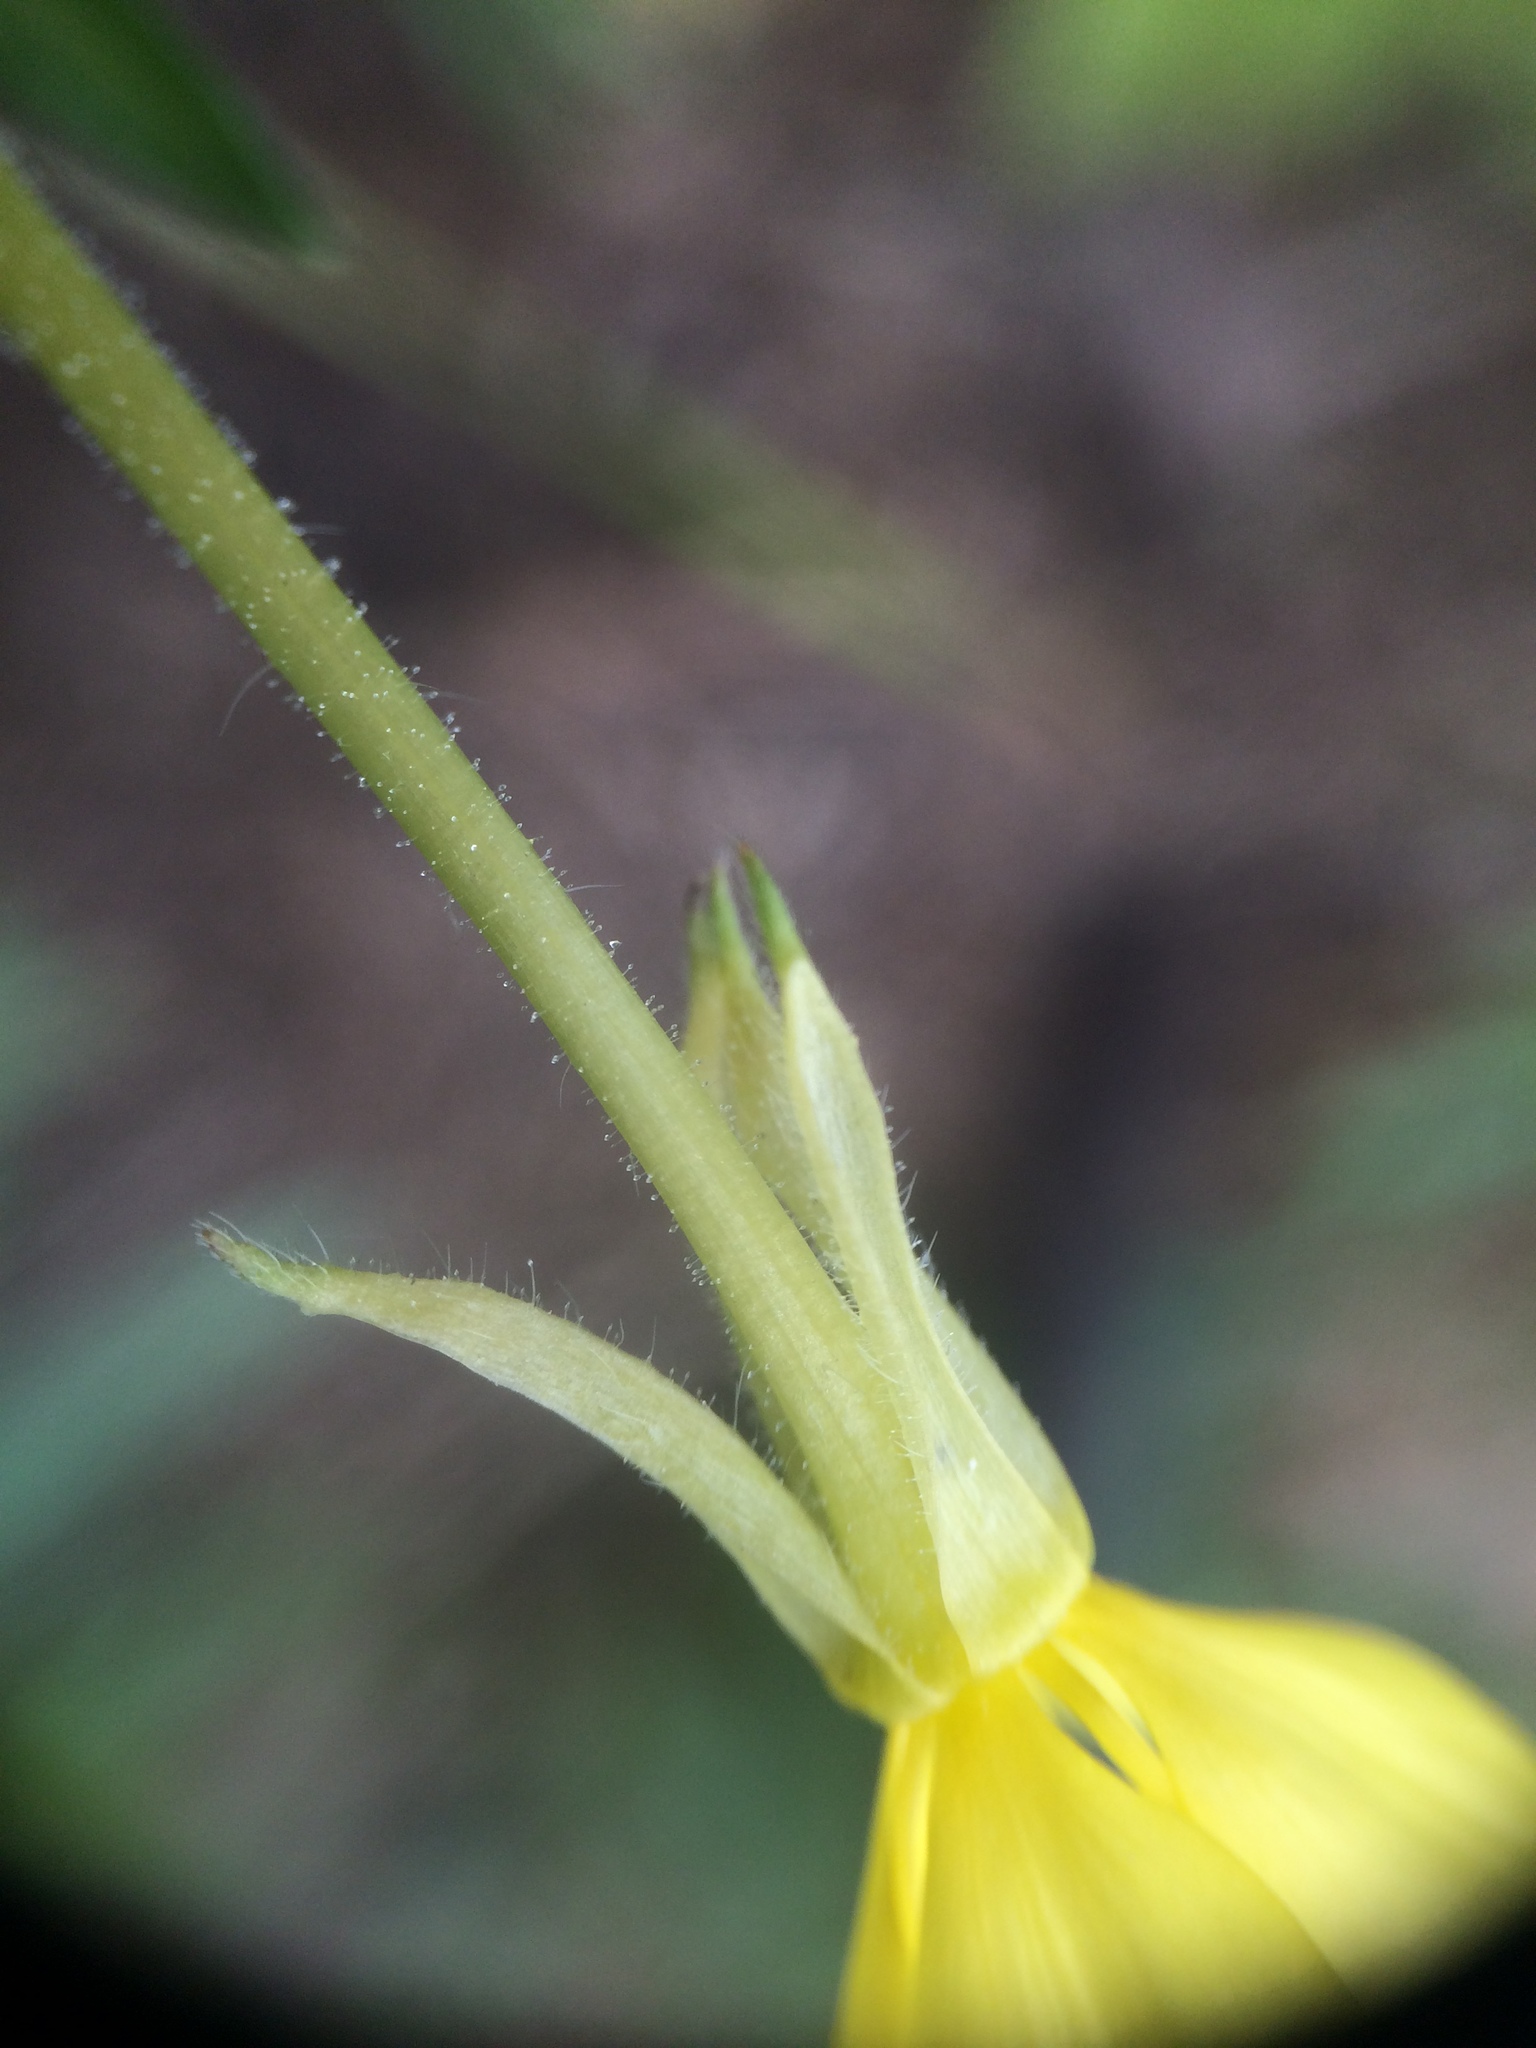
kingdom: Plantae
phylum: Tracheophyta
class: Magnoliopsida
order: Myrtales
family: Onagraceae
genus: Oenothera
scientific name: Oenothera biennis
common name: Common evening-primrose
